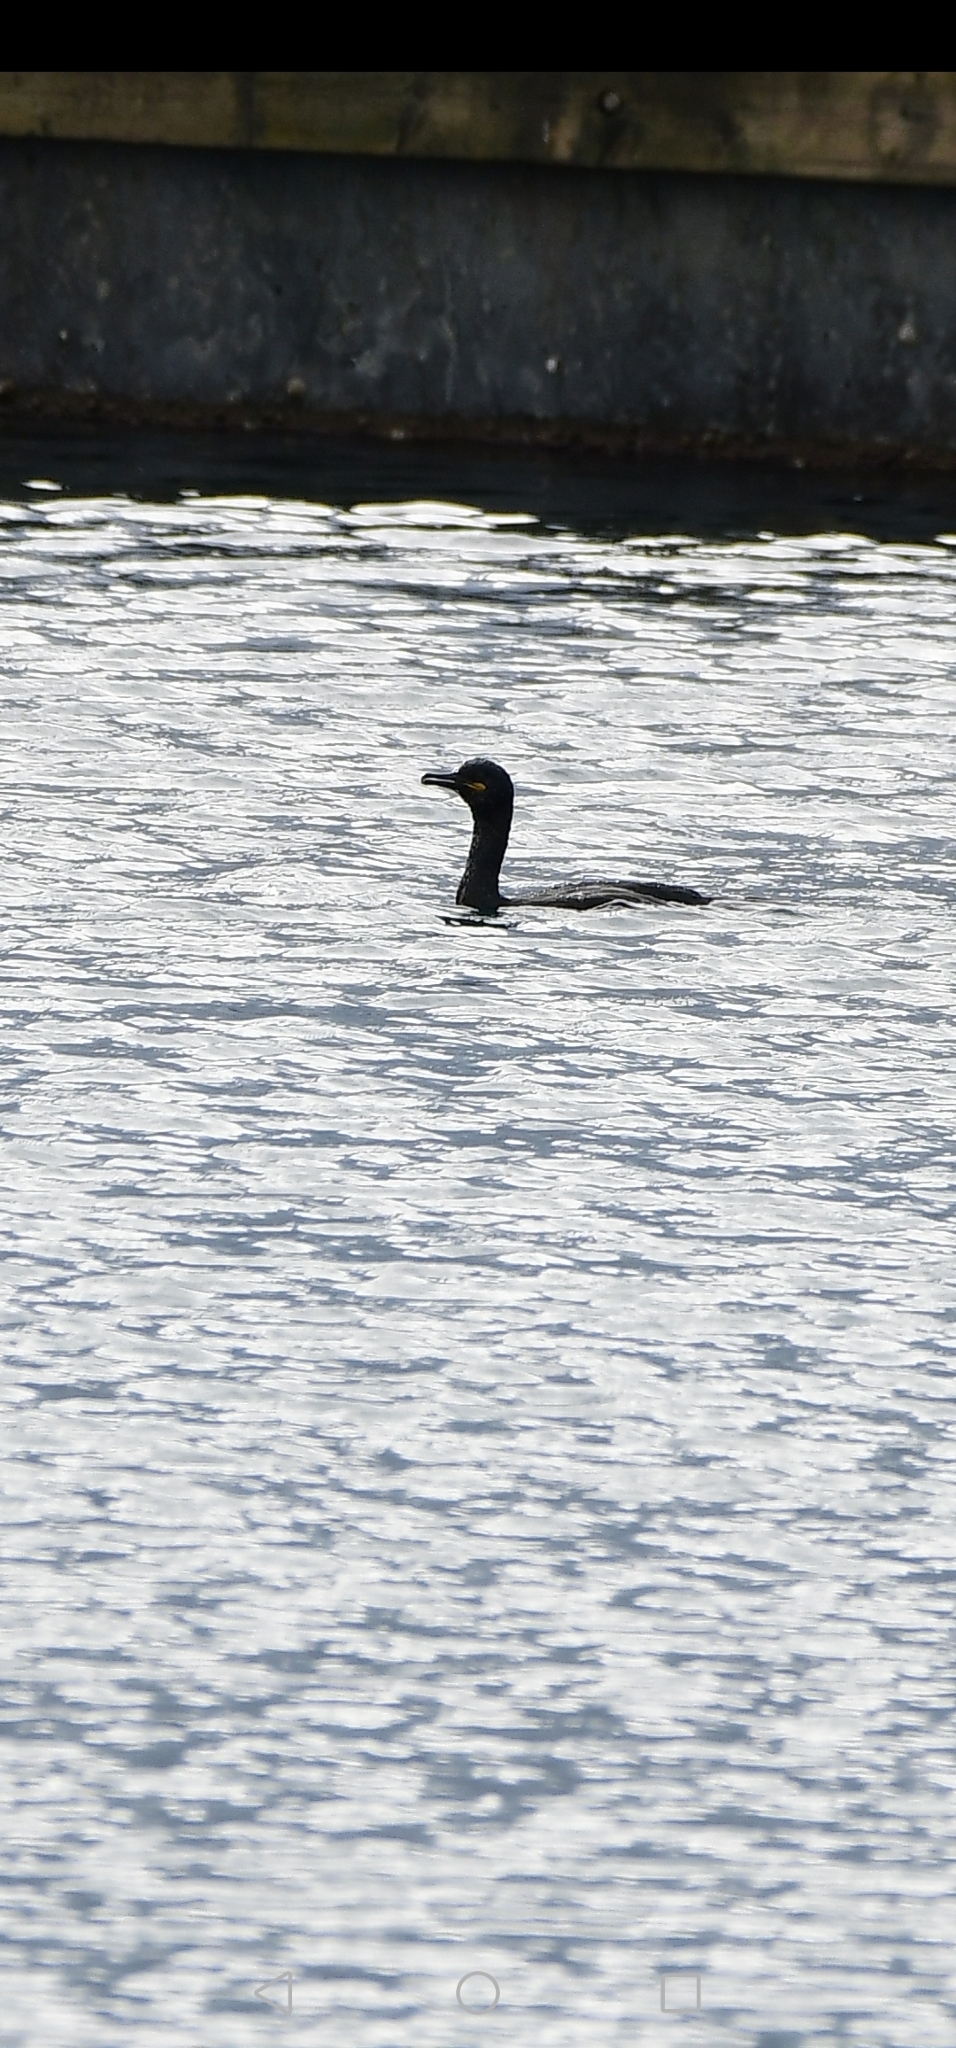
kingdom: Animalia
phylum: Chordata
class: Aves
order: Suliformes
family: Phalacrocoracidae
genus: Phalacrocorax
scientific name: Phalacrocorax aristotelis
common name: European shag
